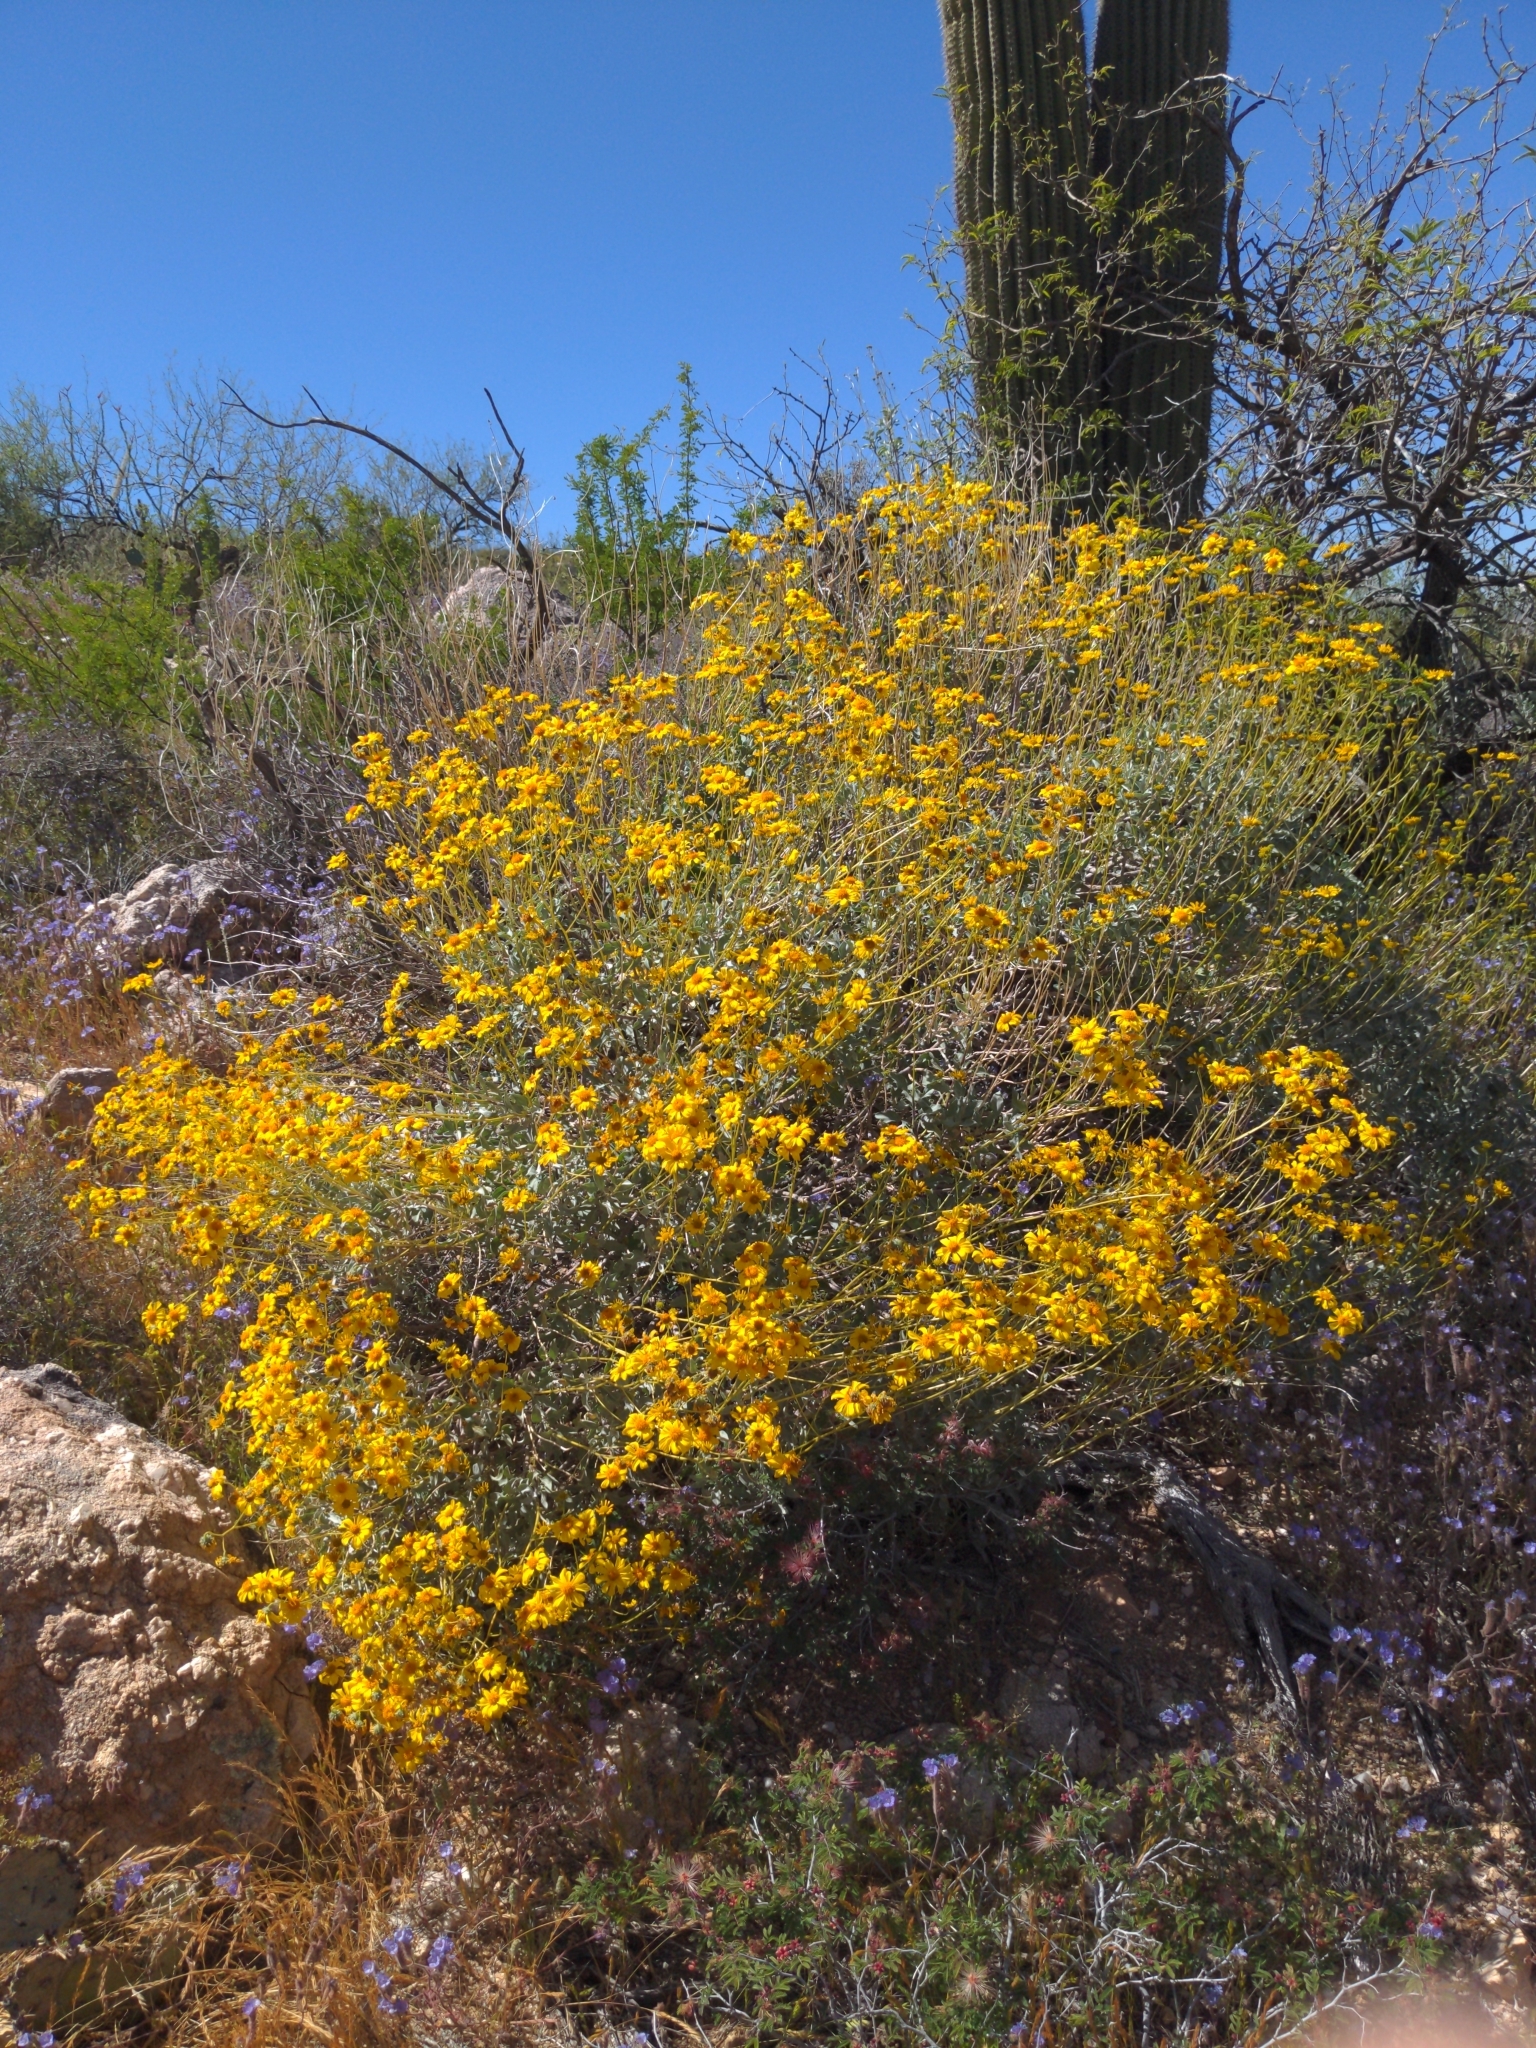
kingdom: Plantae
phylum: Tracheophyta
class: Magnoliopsida
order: Asterales
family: Asteraceae
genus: Encelia
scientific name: Encelia farinosa
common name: Brittlebush
